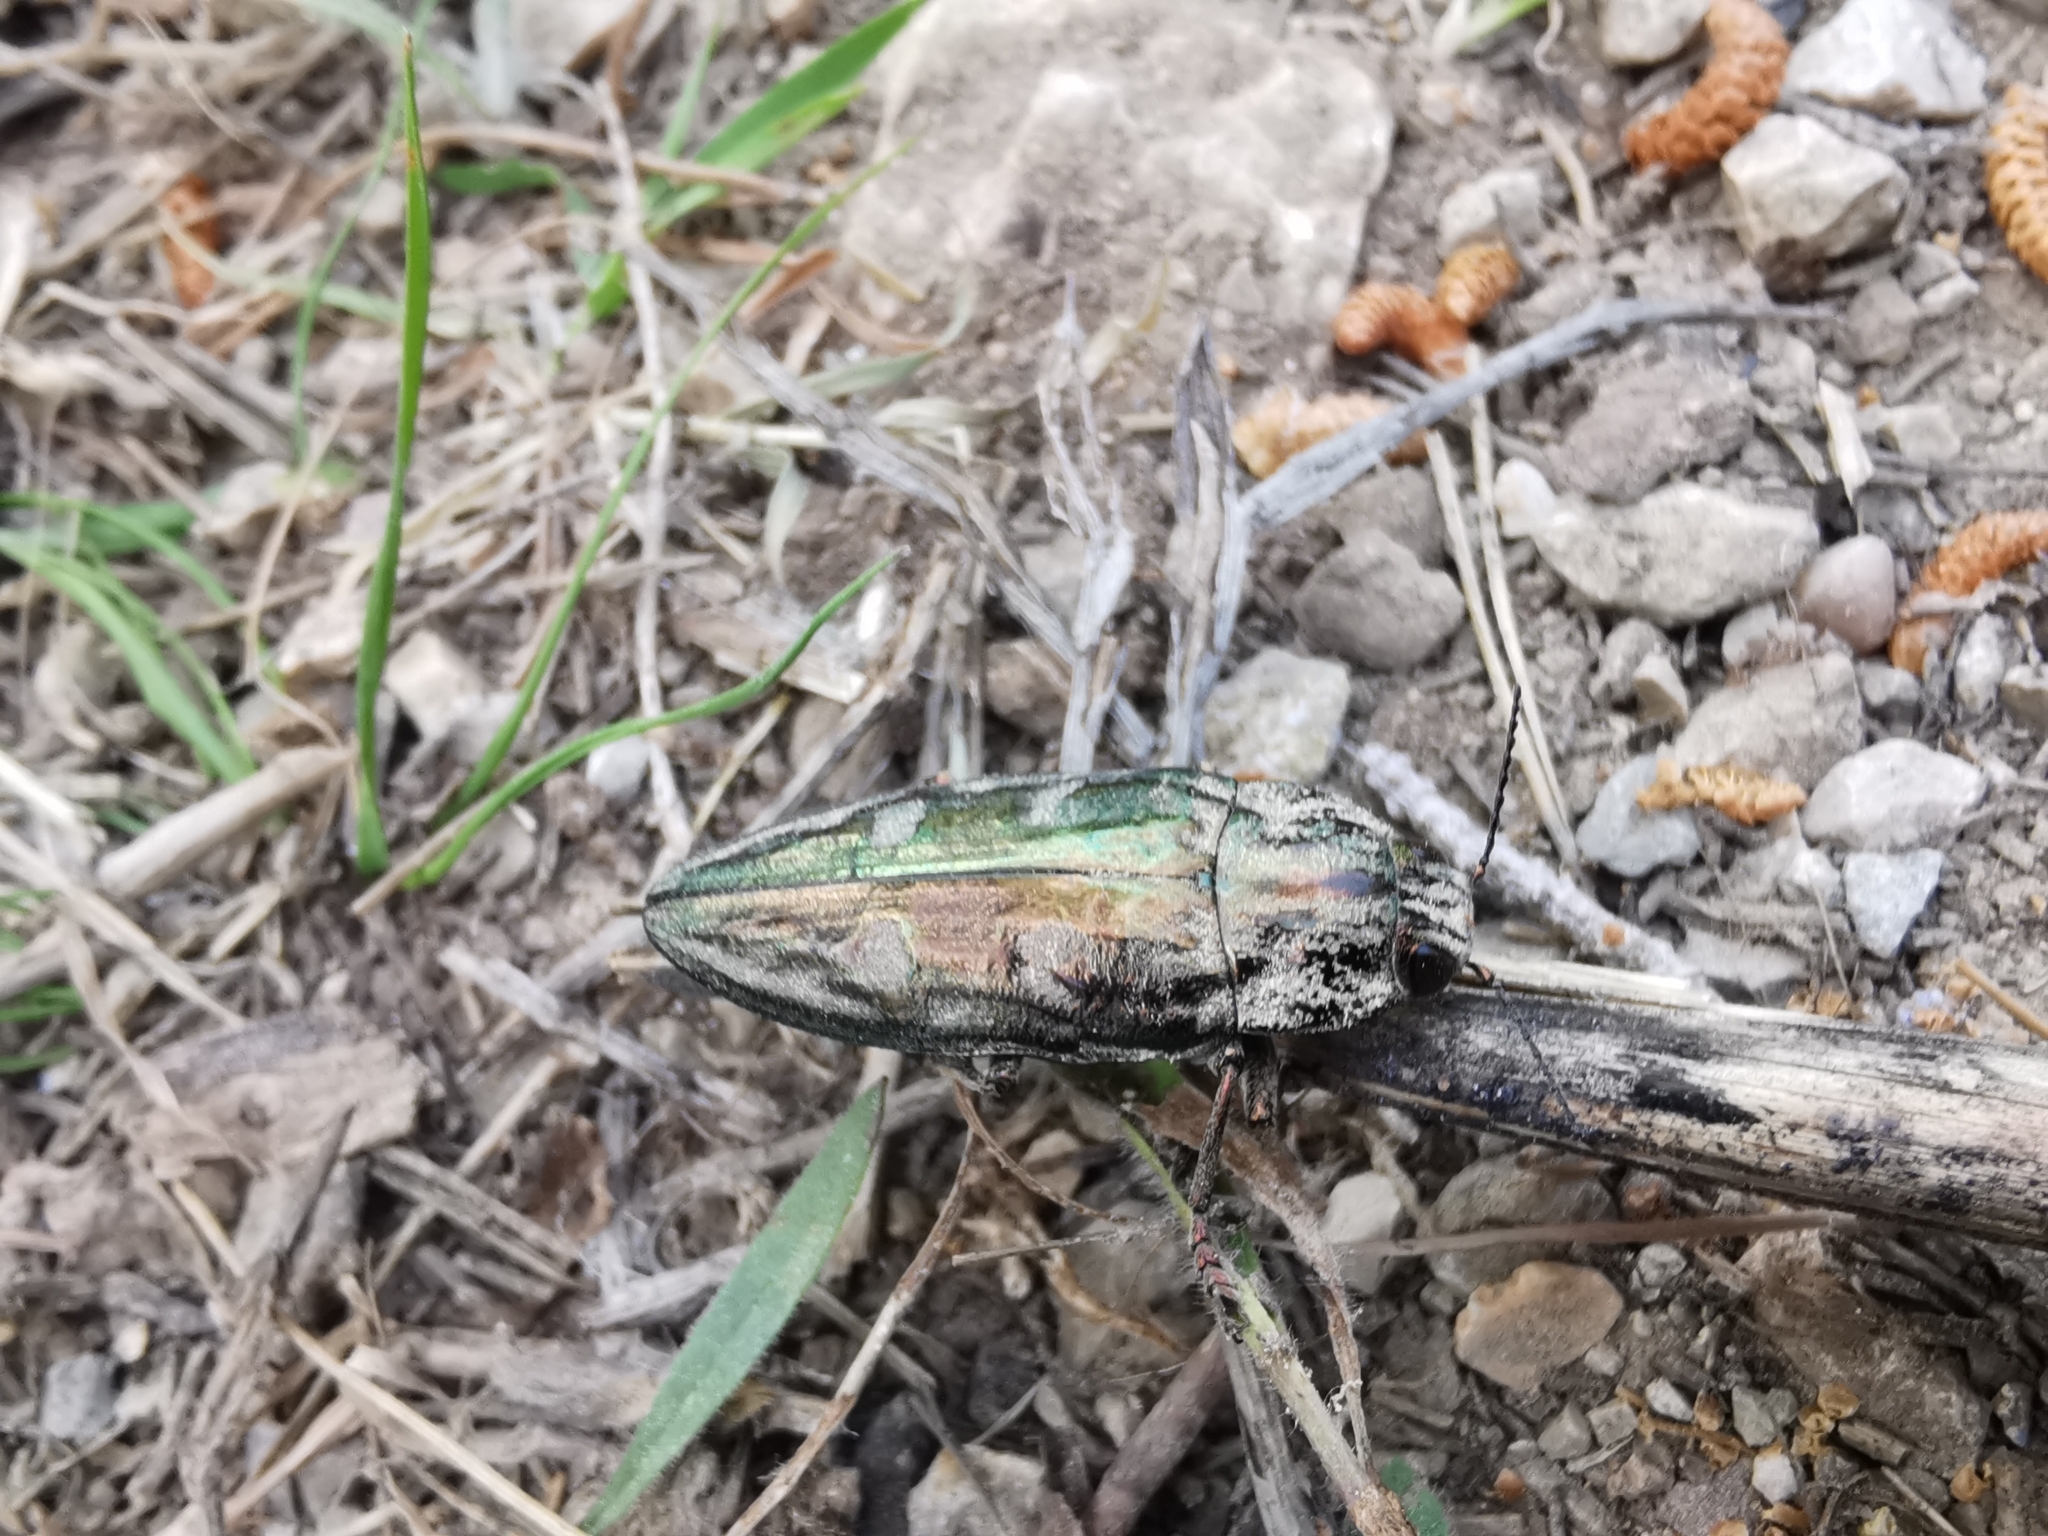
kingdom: Animalia
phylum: Arthropoda
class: Insecta
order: Coleoptera
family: Buprestidae
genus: Chalcophora
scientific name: Chalcophora massiliensis
